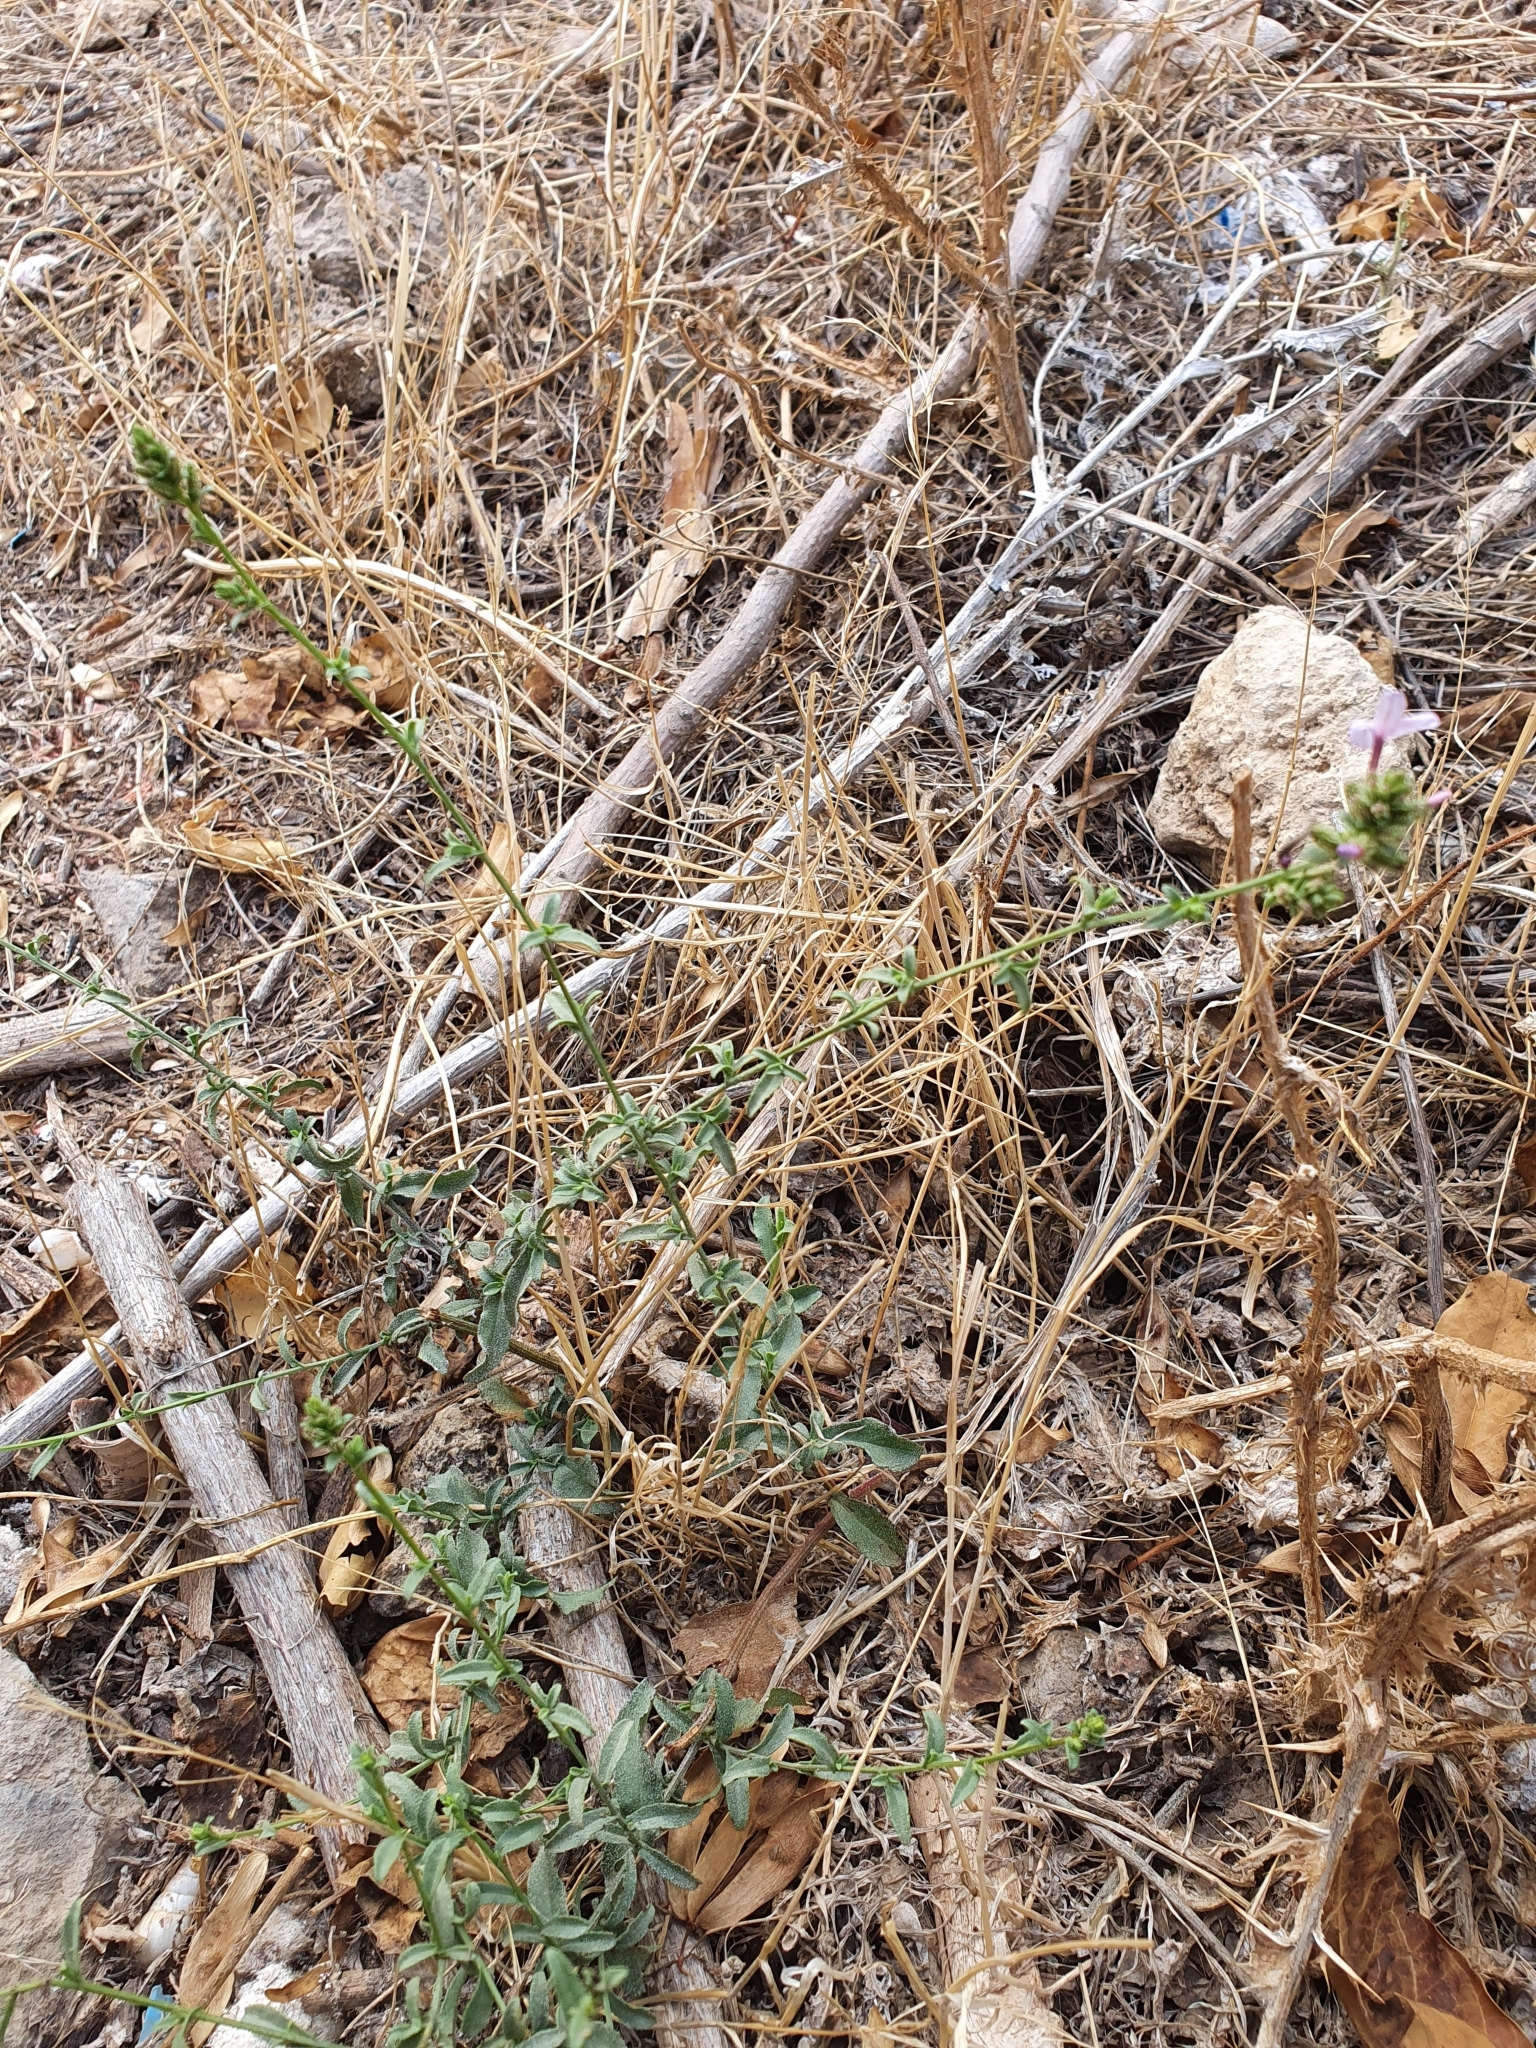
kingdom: Plantae
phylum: Tracheophyta
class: Magnoliopsida
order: Caryophyllales
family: Plumbaginaceae
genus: Plumbago
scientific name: Plumbago europaea
